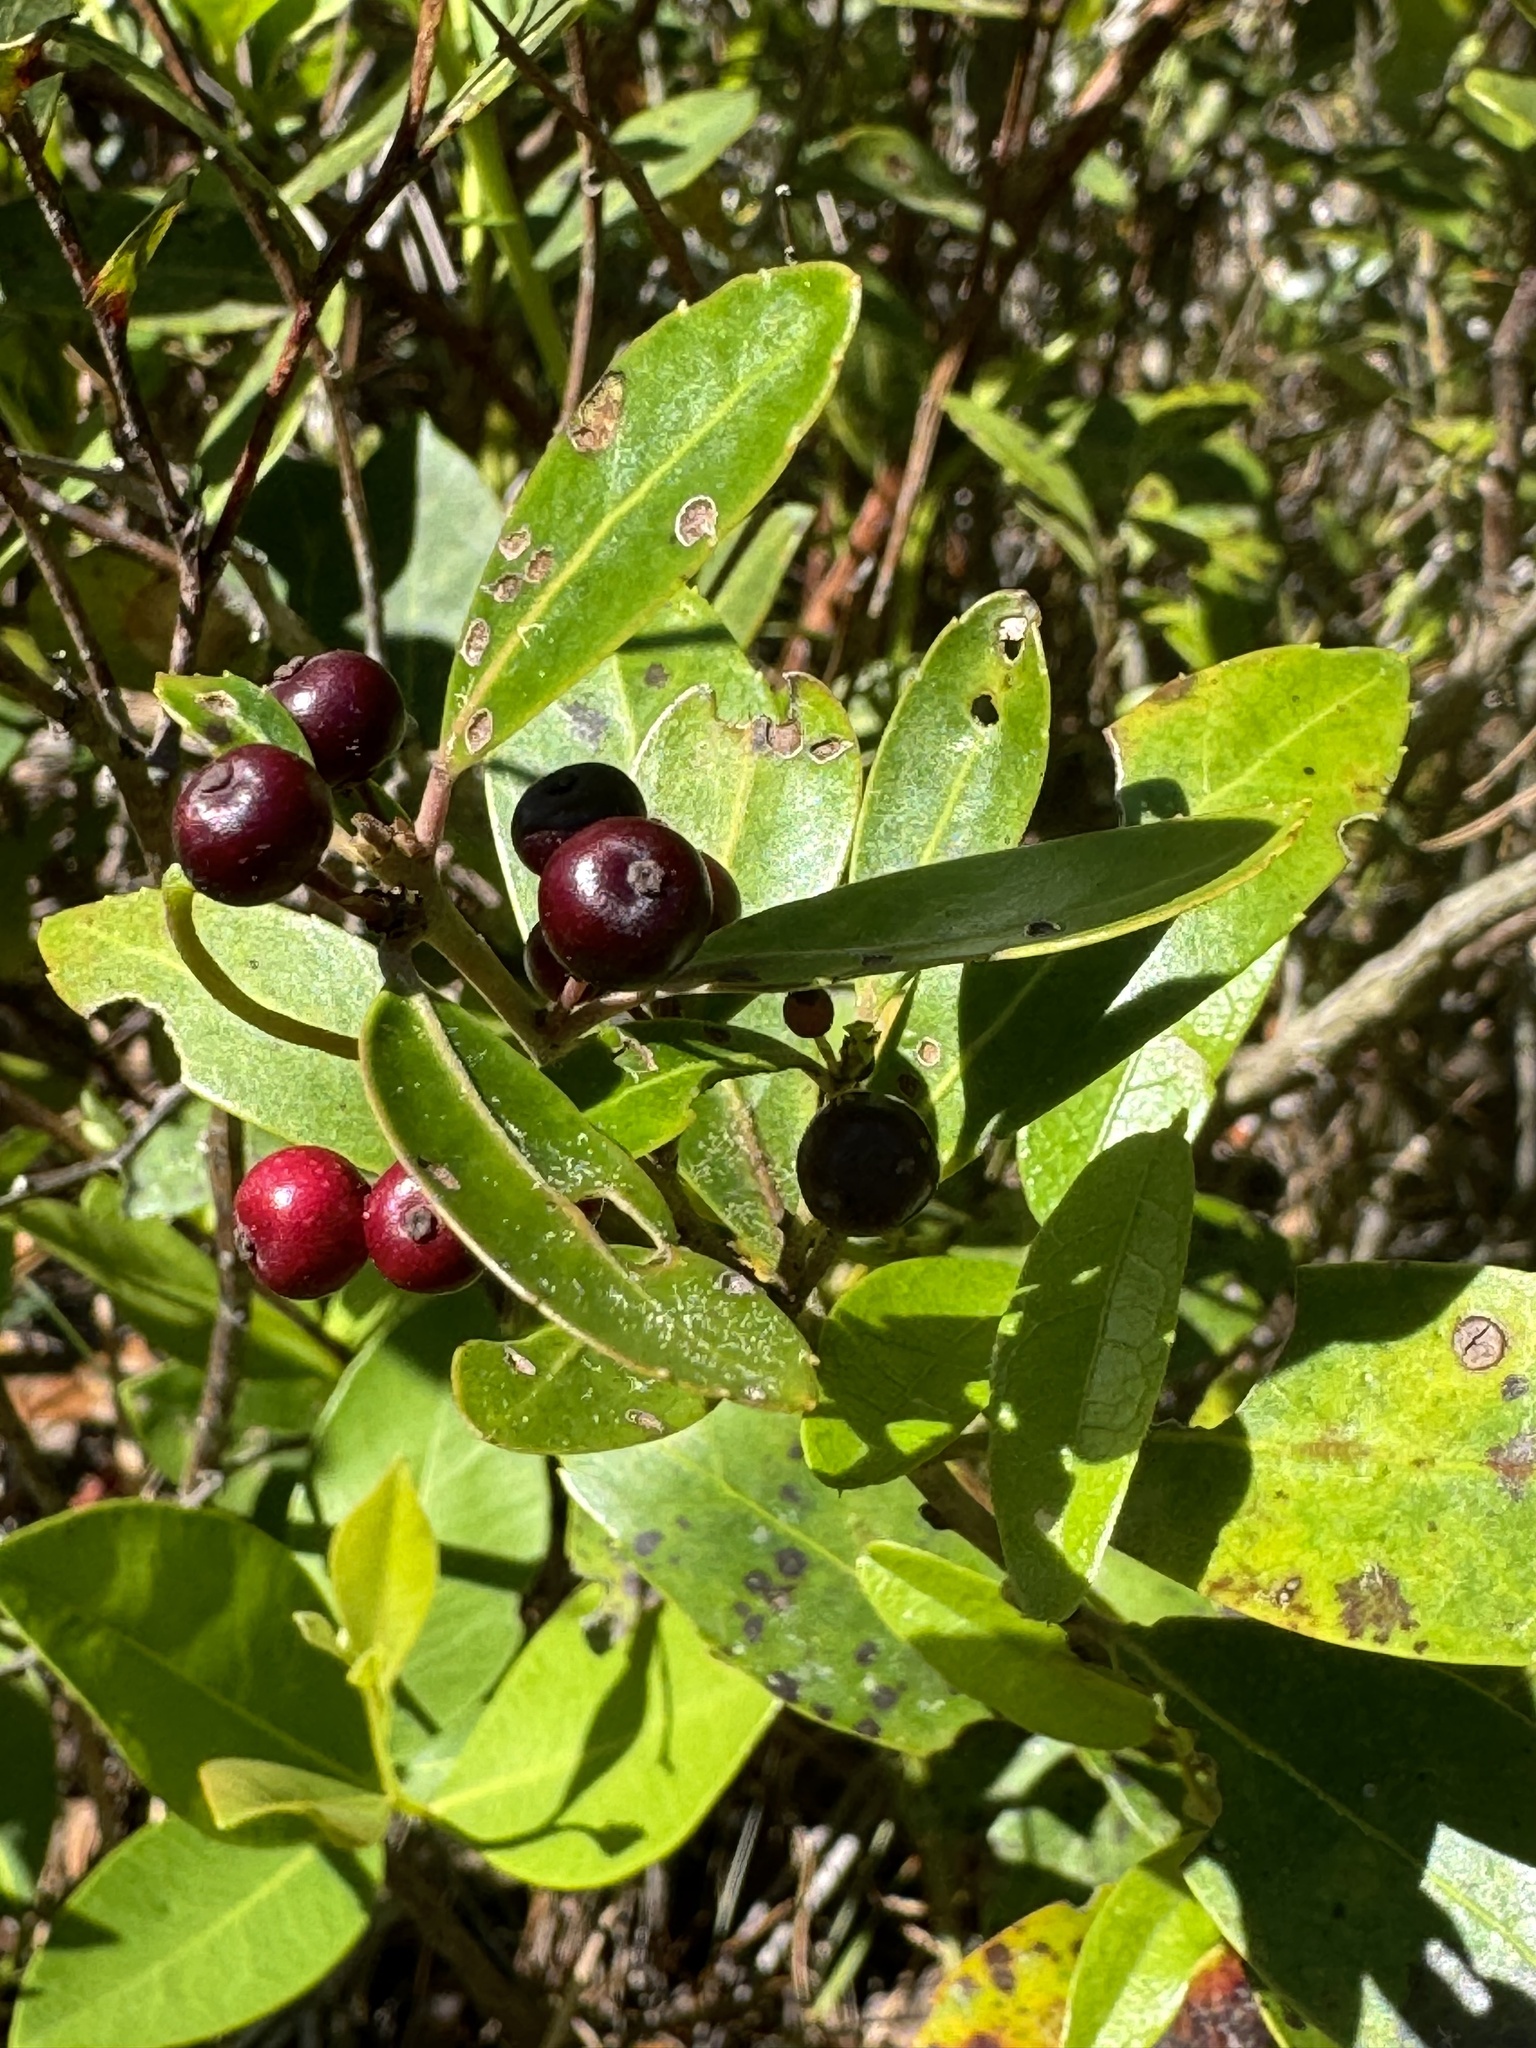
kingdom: Plantae
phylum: Tracheophyta
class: Magnoliopsida
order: Aquifoliales
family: Aquifoliaceae
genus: Ilex
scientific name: Ilex glabra
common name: Bitter gallberry
